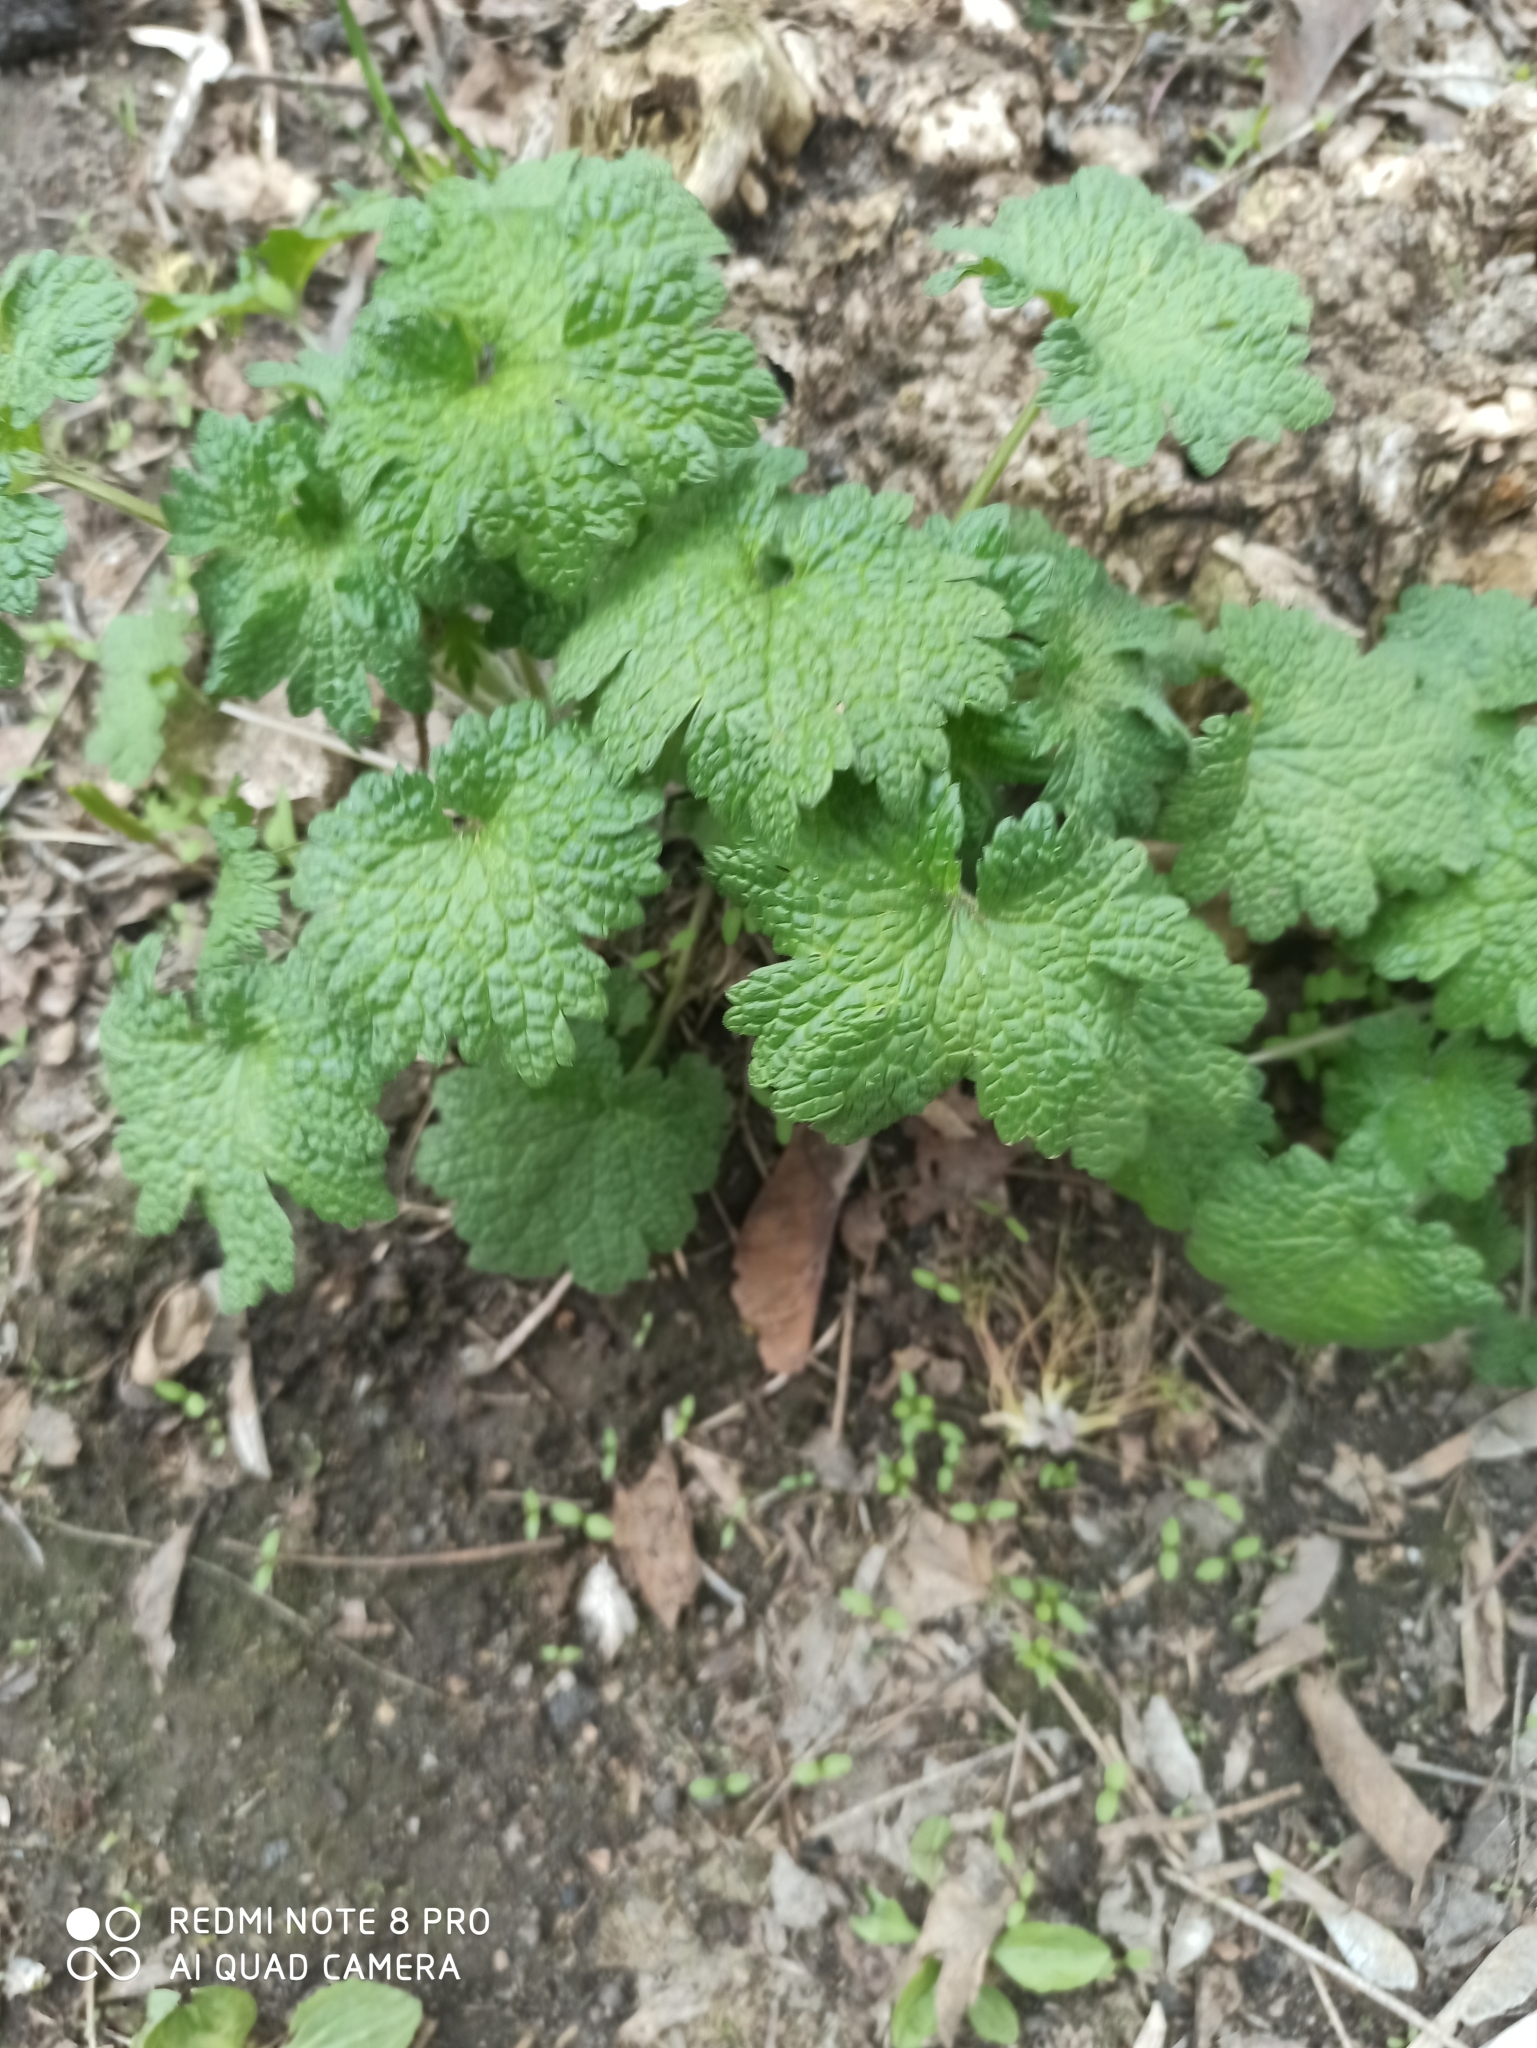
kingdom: Plantae
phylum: Tracheophyta
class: Magnoliopsida
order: Lamiales
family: Lamiaceae
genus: Leonurus
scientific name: Leonurus quinquelobatus
